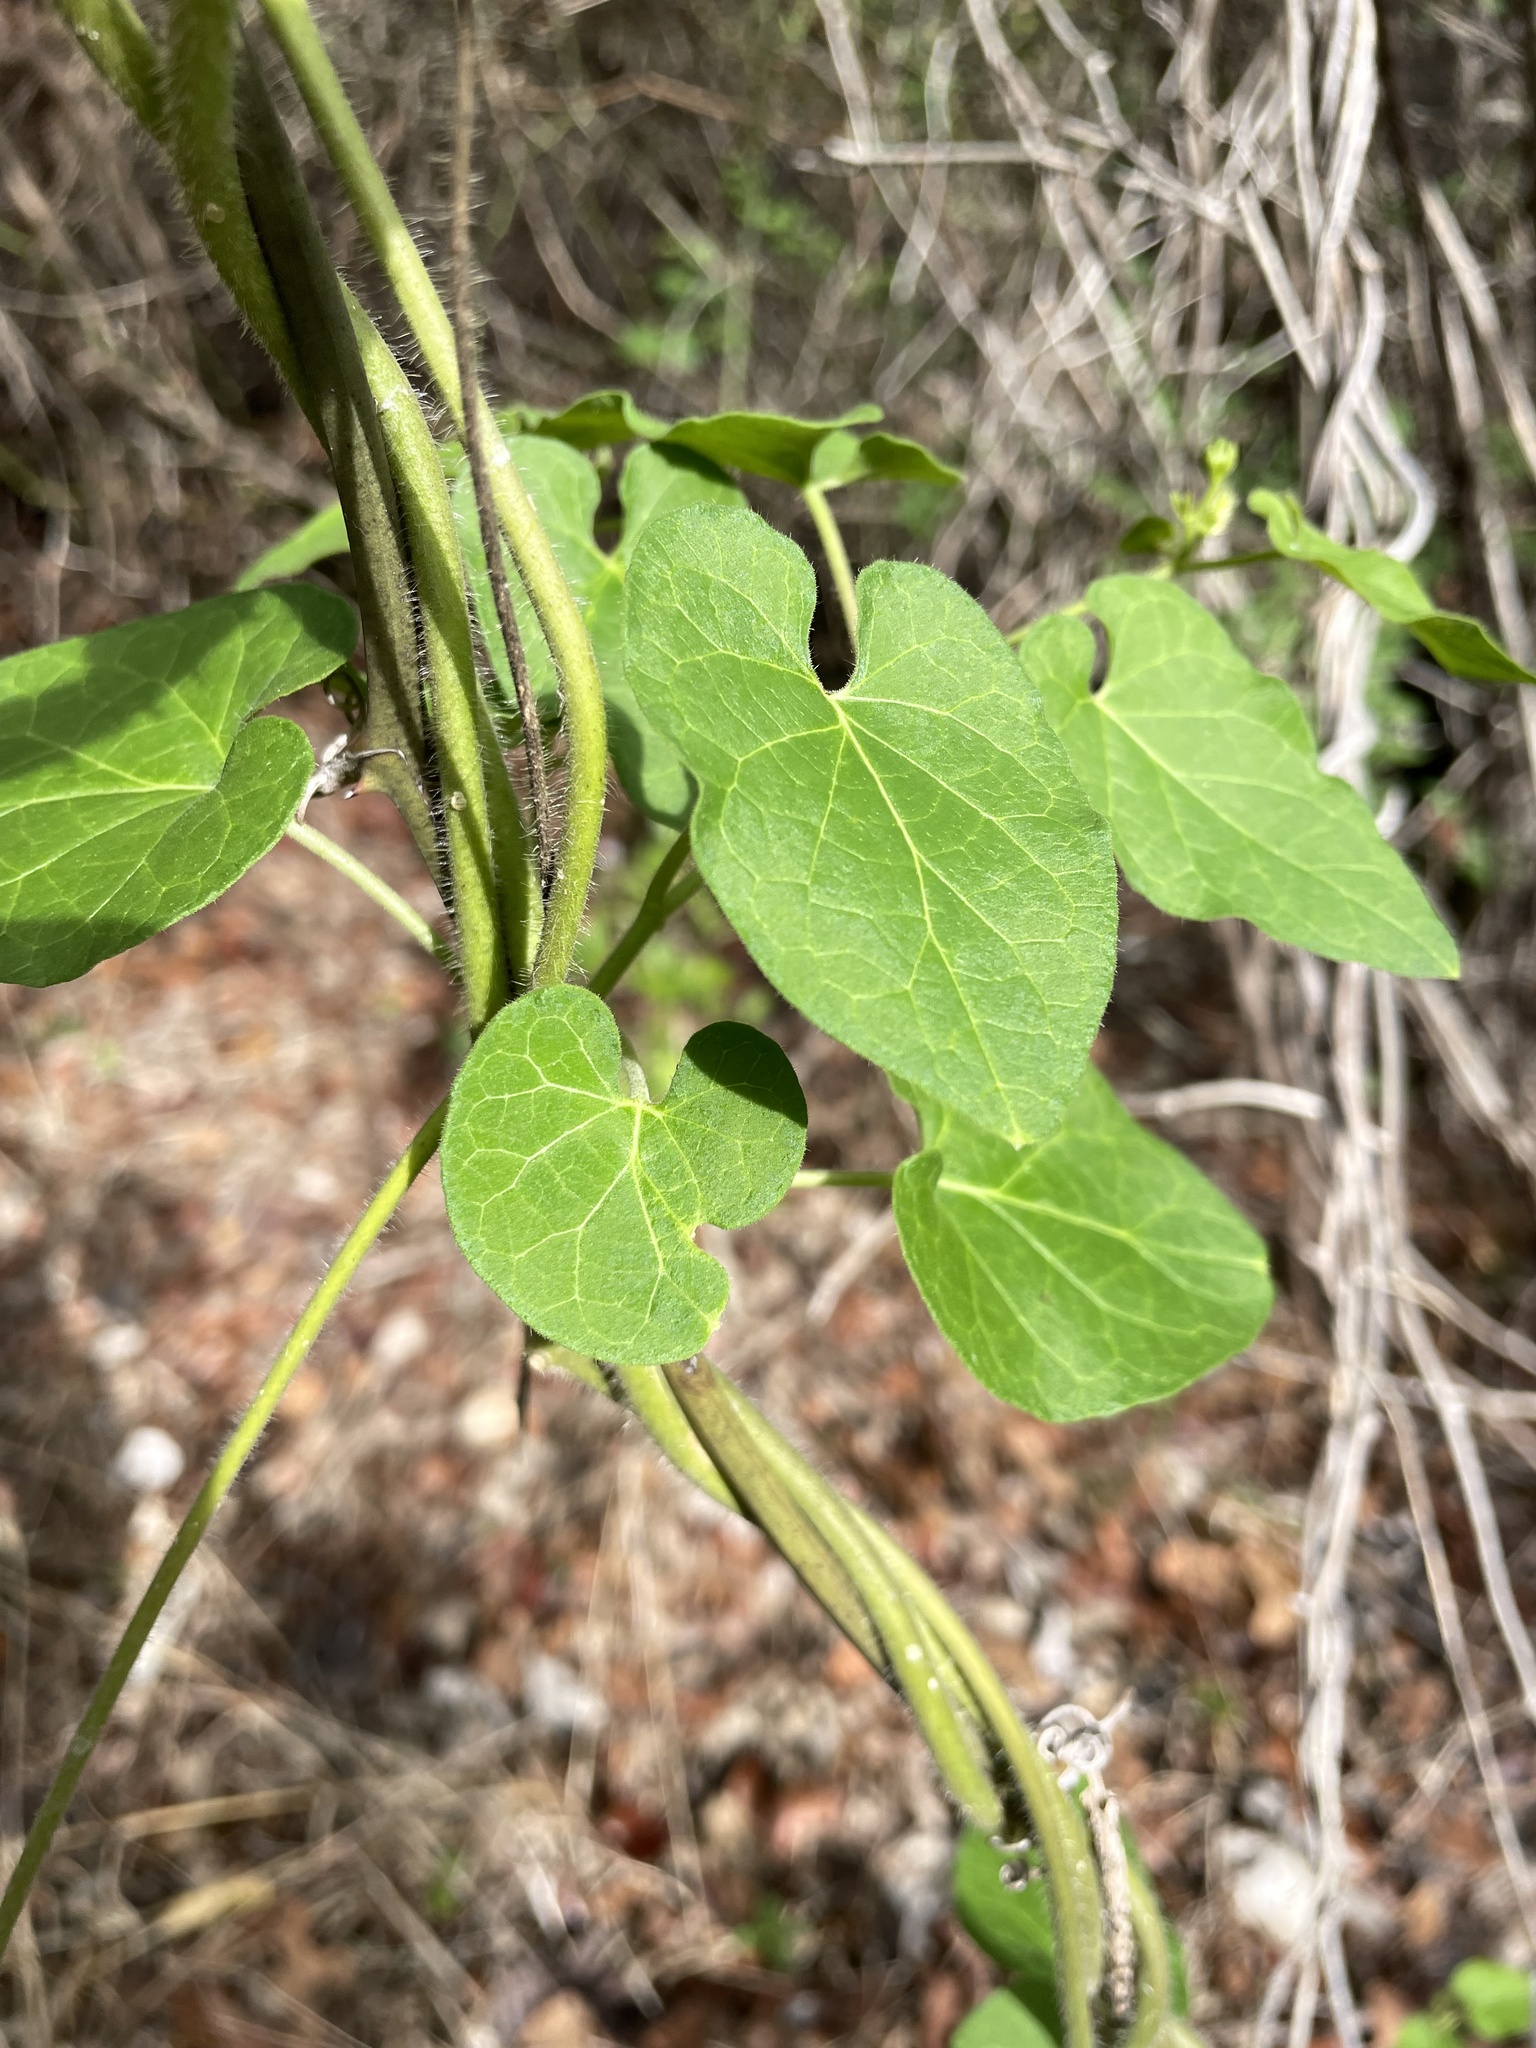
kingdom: Plantae
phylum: Tracheophyta
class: Magnoliopsida
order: Gentianales
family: Apocynaceae
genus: Dictyanthus
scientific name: Dictyanthus reticulatus
